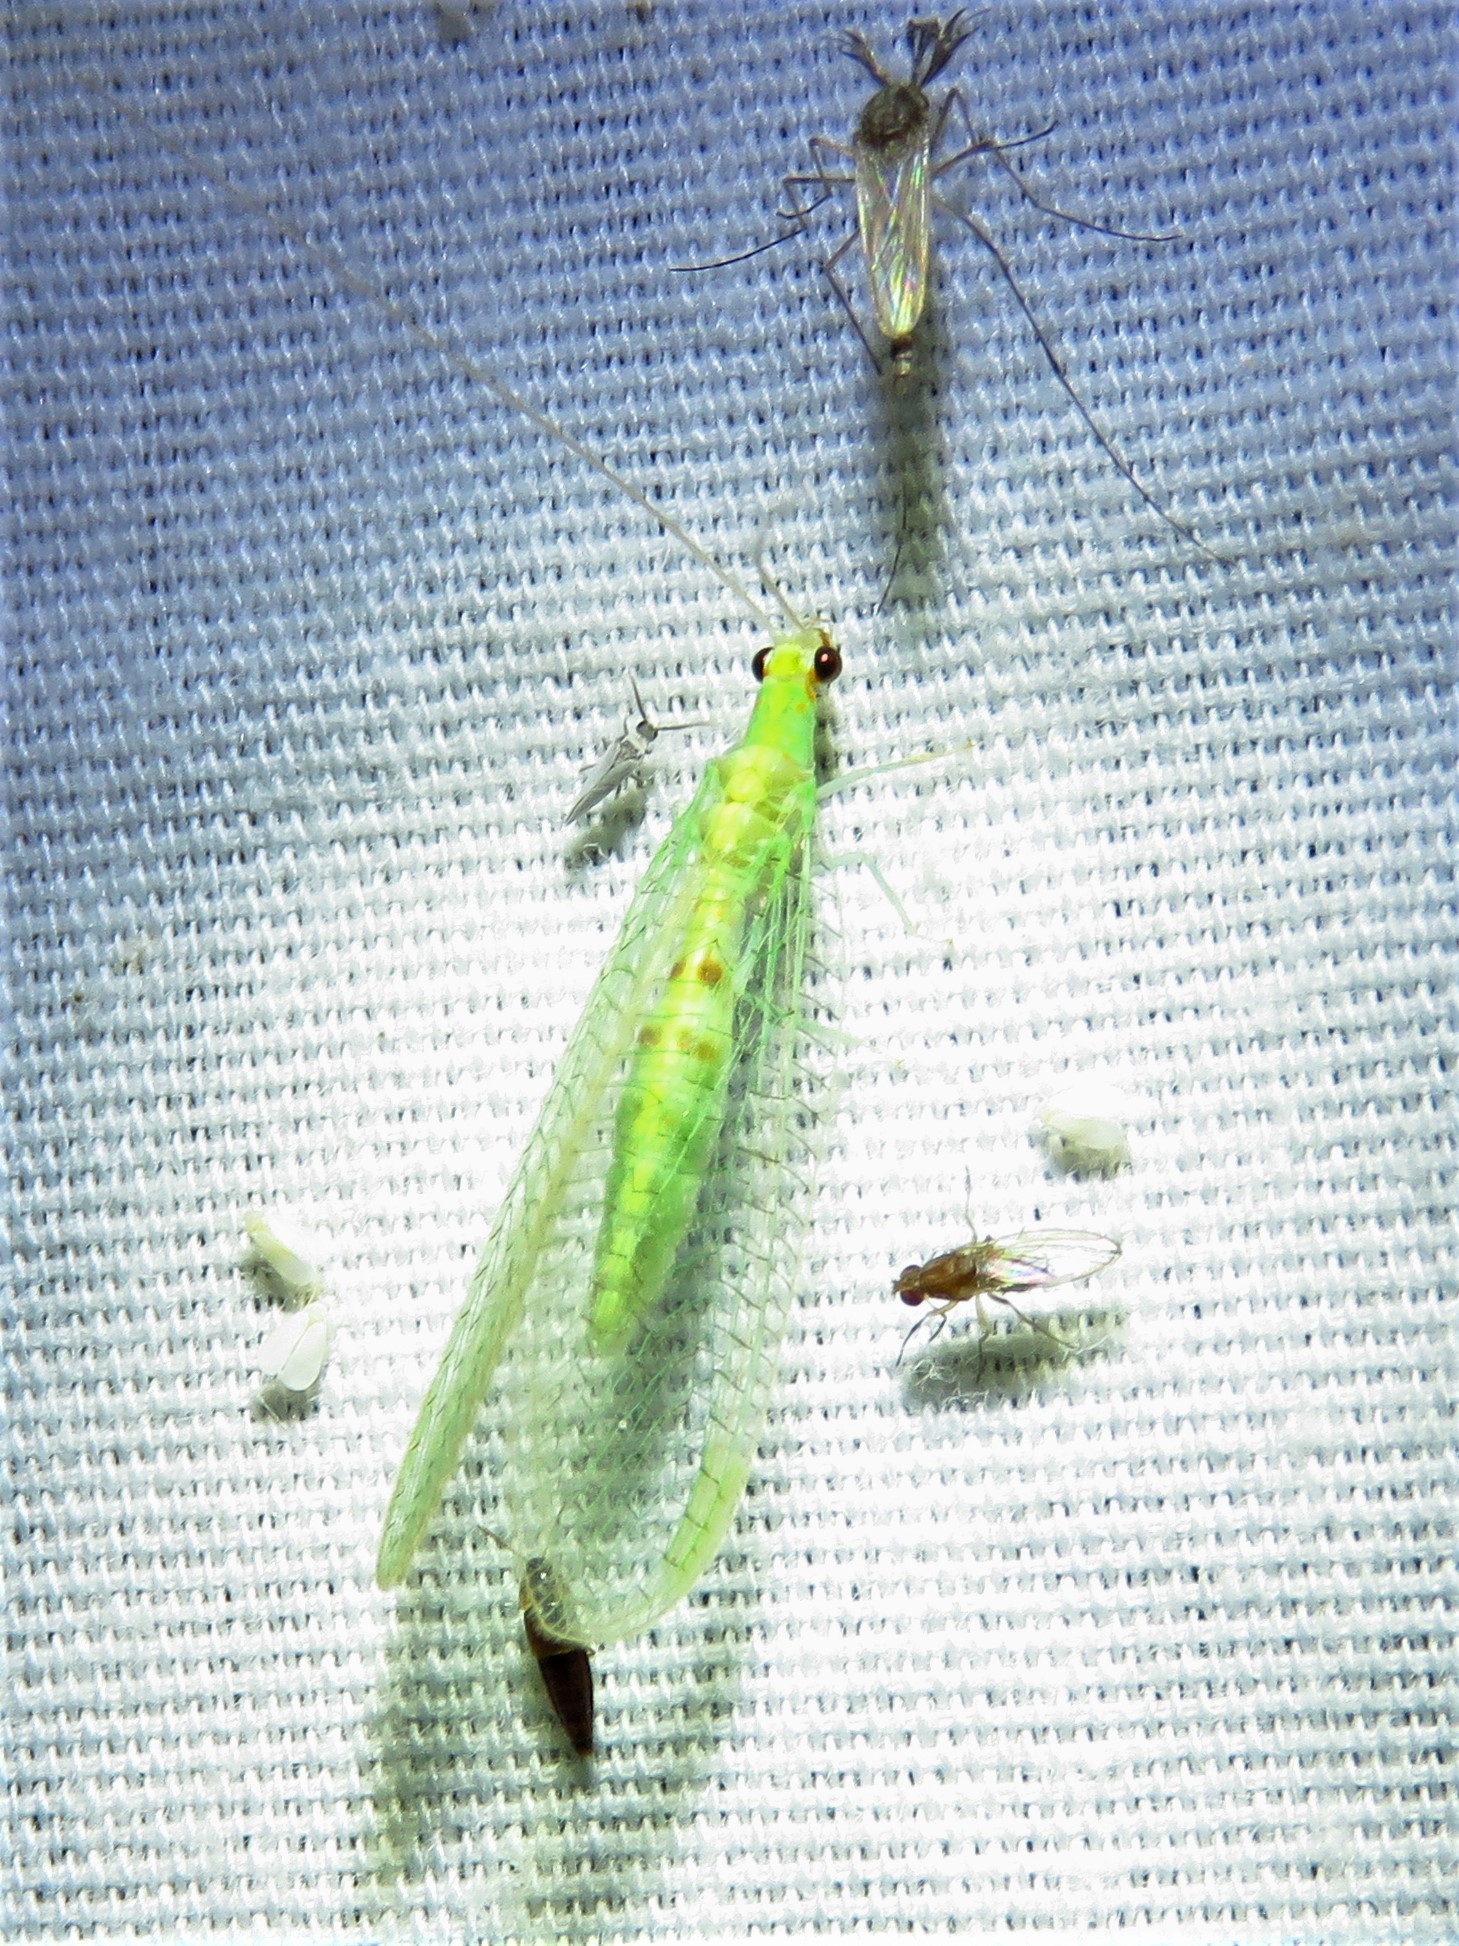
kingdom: Animalia
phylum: Arthropoda
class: Insecta
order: Neuroptera
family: Chrysopidae
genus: Chrysopa
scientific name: Chrysopa quadripunctata
